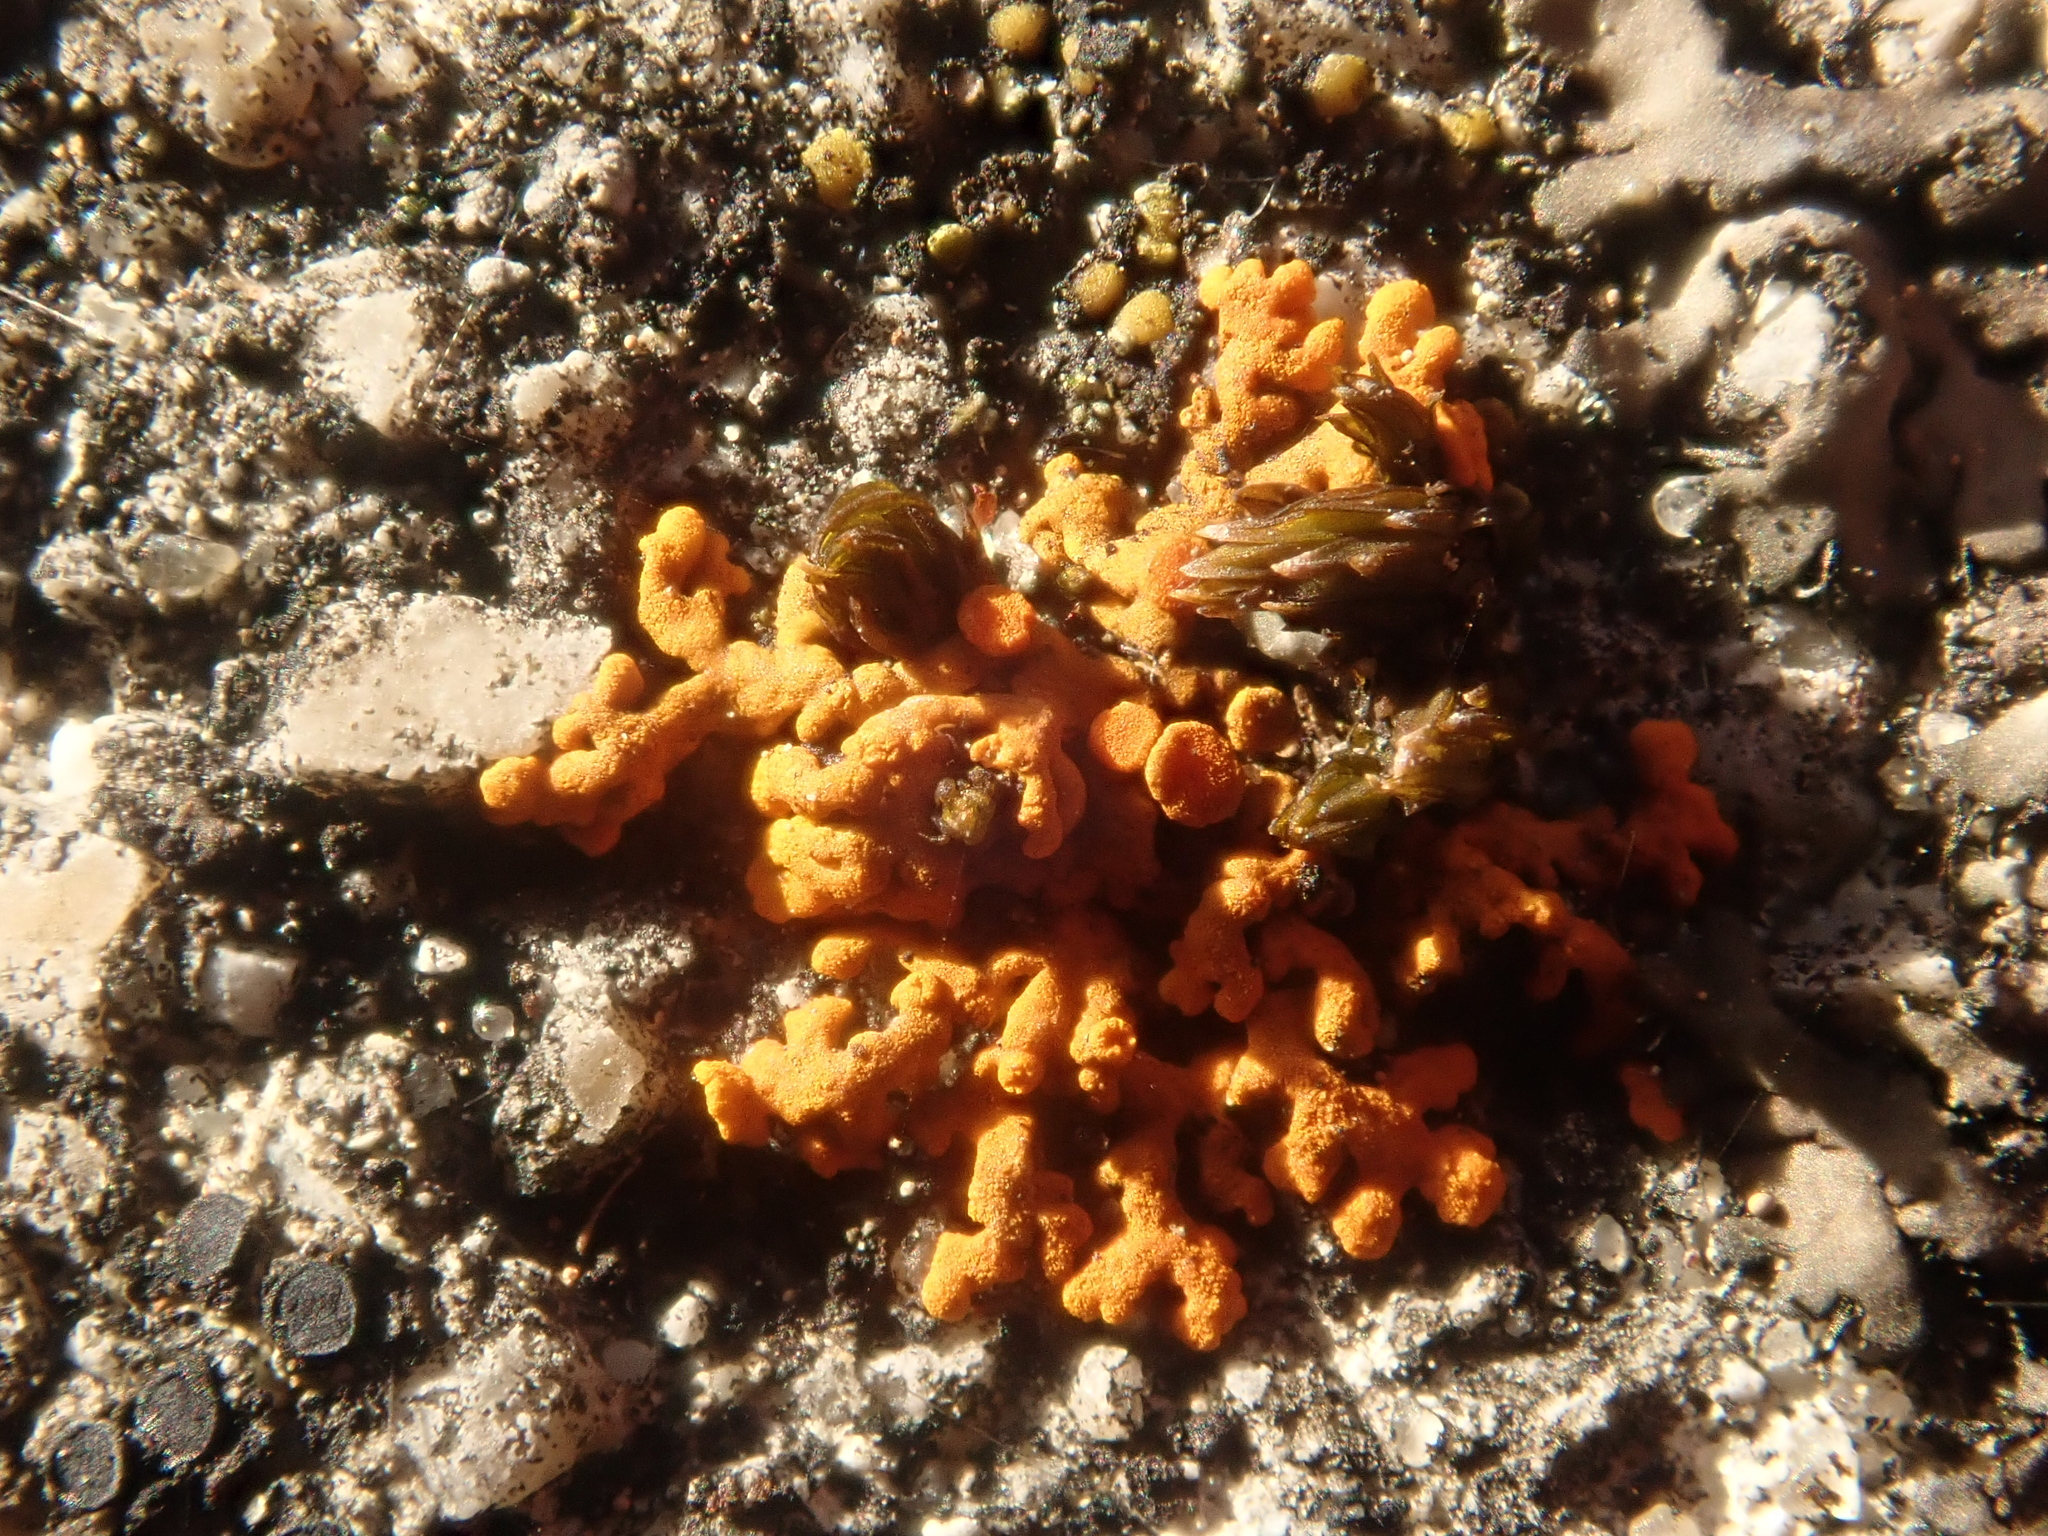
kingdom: Fungi
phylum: Ascomycota
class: Lecanoromycetes
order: Teloschistales
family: Teloschistaceae
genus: Xanthoria
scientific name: Xanthoria elegans
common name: Elegant sunburst lichen
